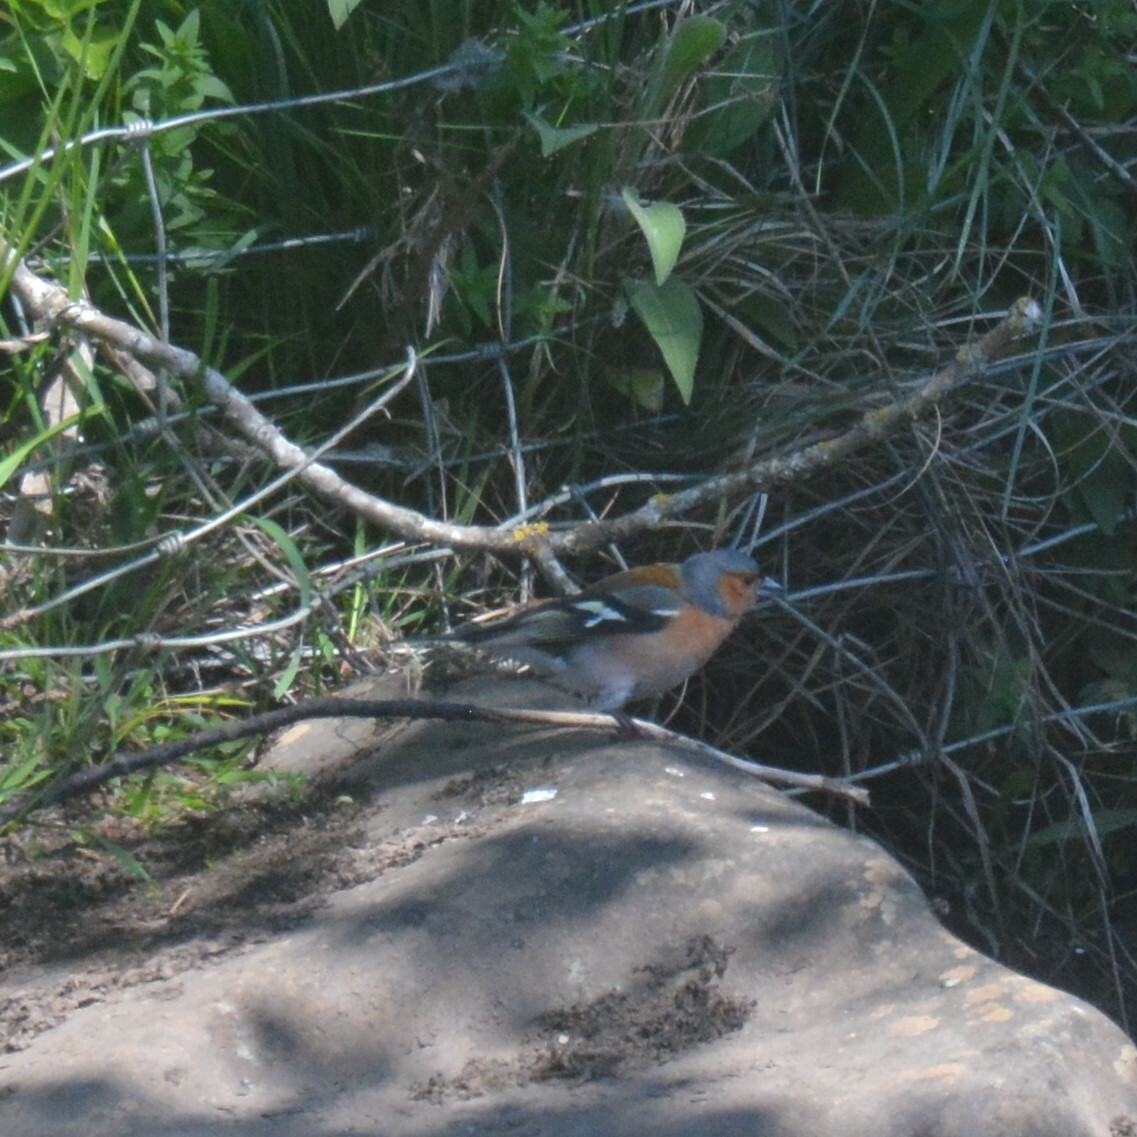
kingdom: Animalia
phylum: Chordata
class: Aves
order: Passeriformes
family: Fringillidae
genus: Fringilla
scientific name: Fringilla coelebs
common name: Common chaffinch
